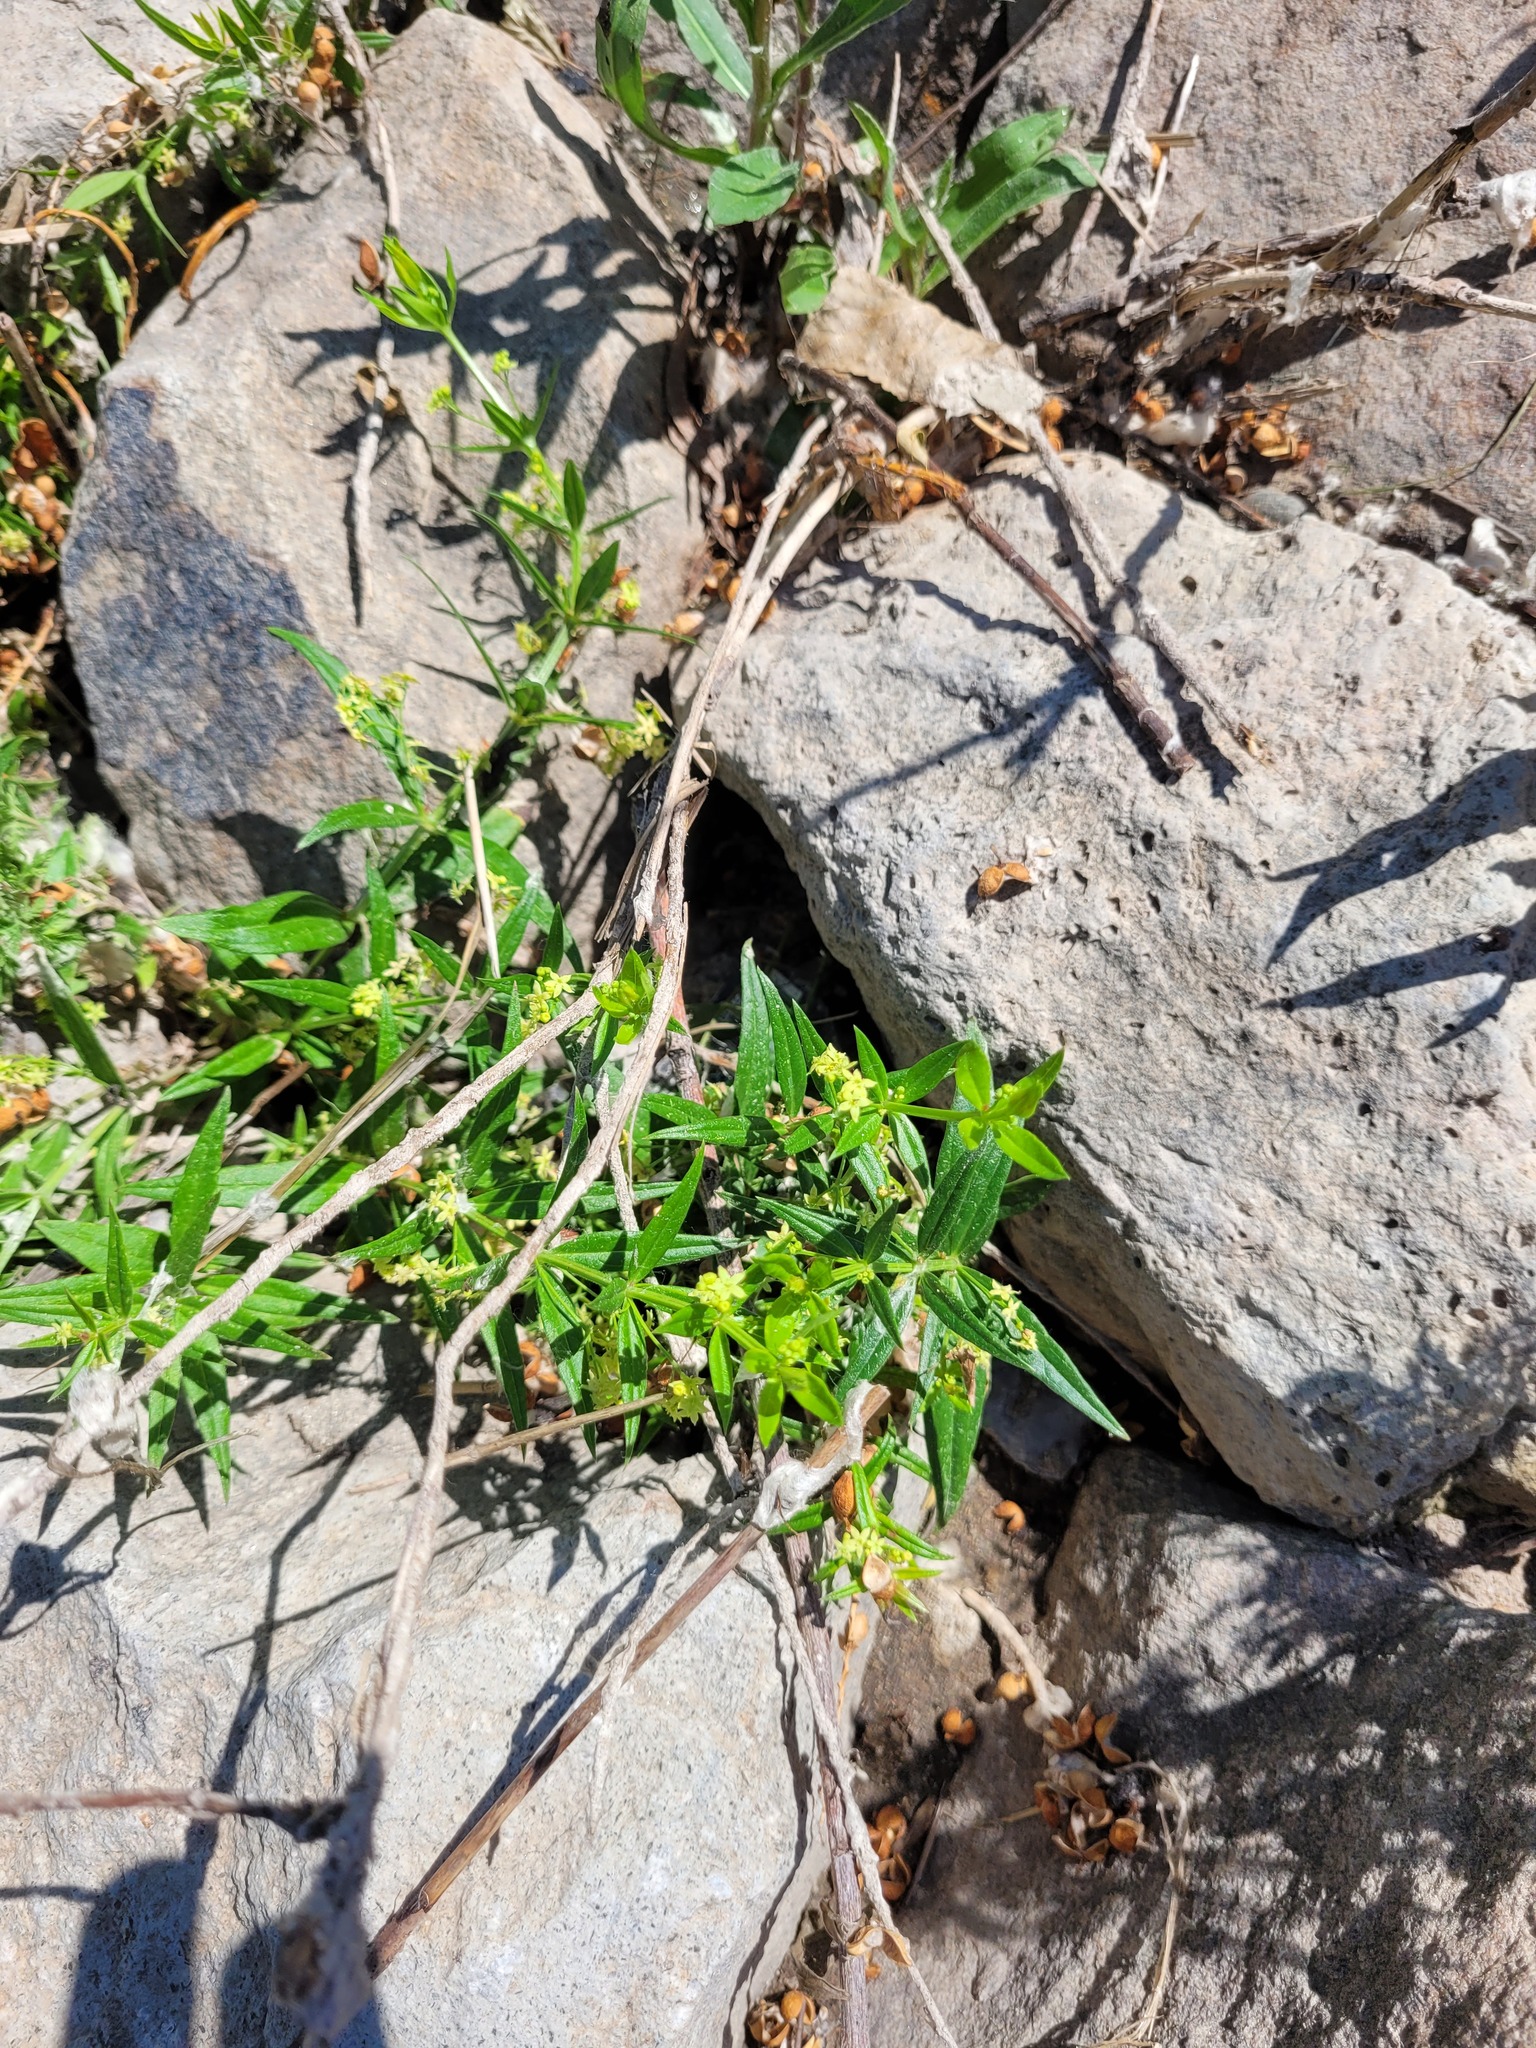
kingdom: Plantae
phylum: Tracheophyta
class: Magnoliopsida
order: Gentianales
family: Rubiaceae
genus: Rubia
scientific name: Rubia tatarica
